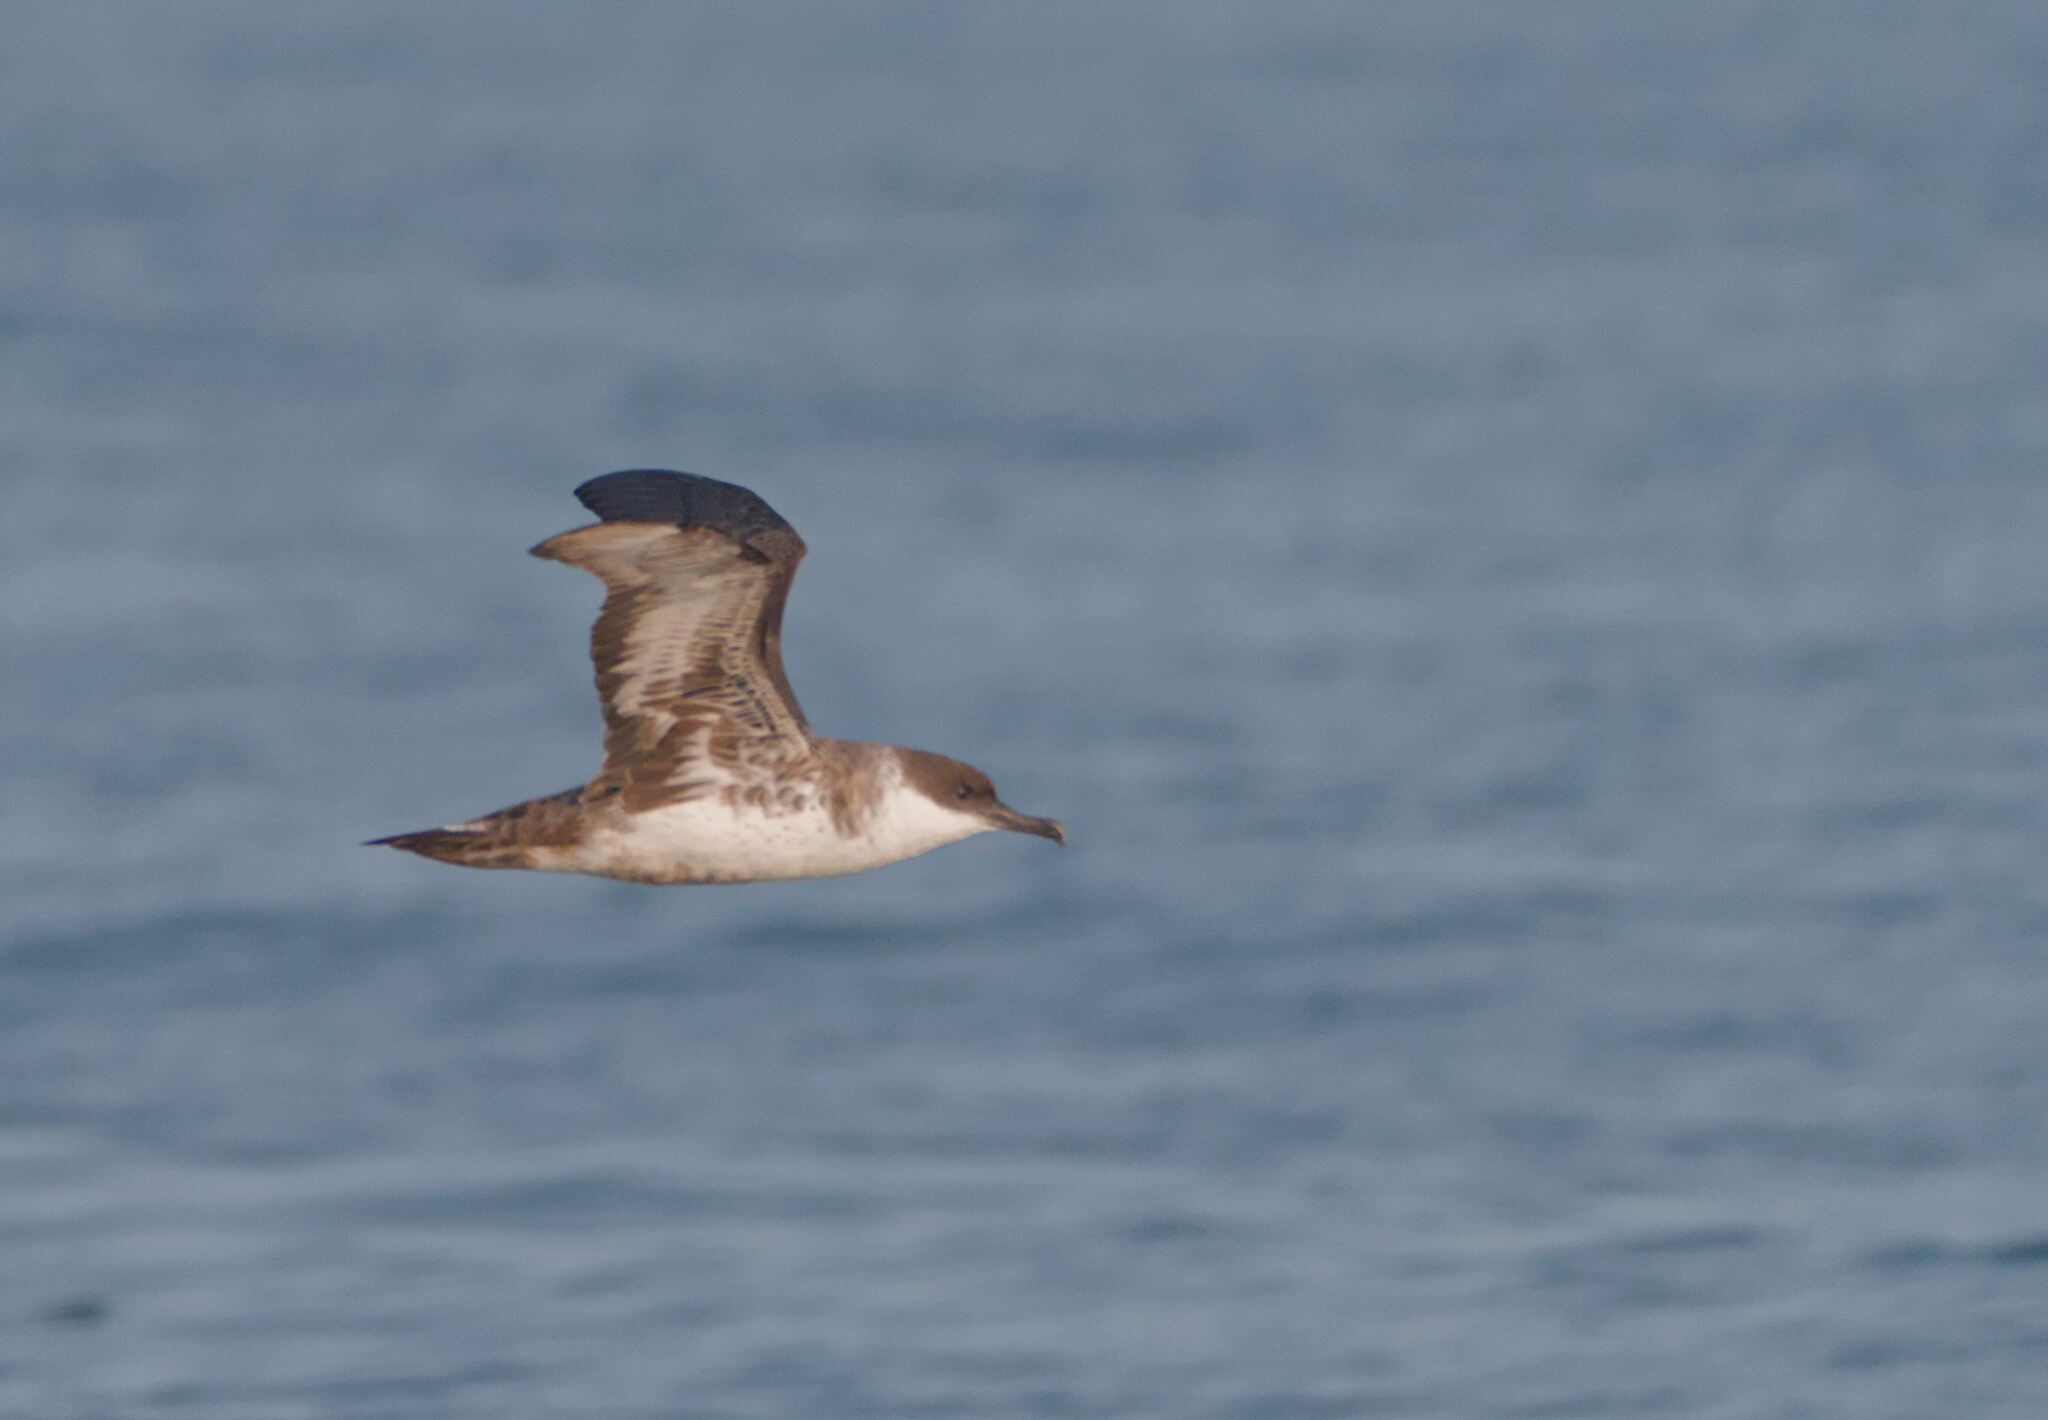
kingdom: Animalia
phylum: Chordata
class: Aves
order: Procellariiformes
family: Procellariidae
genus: Puffinus
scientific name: Puffinus gravis
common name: Great shearwater
